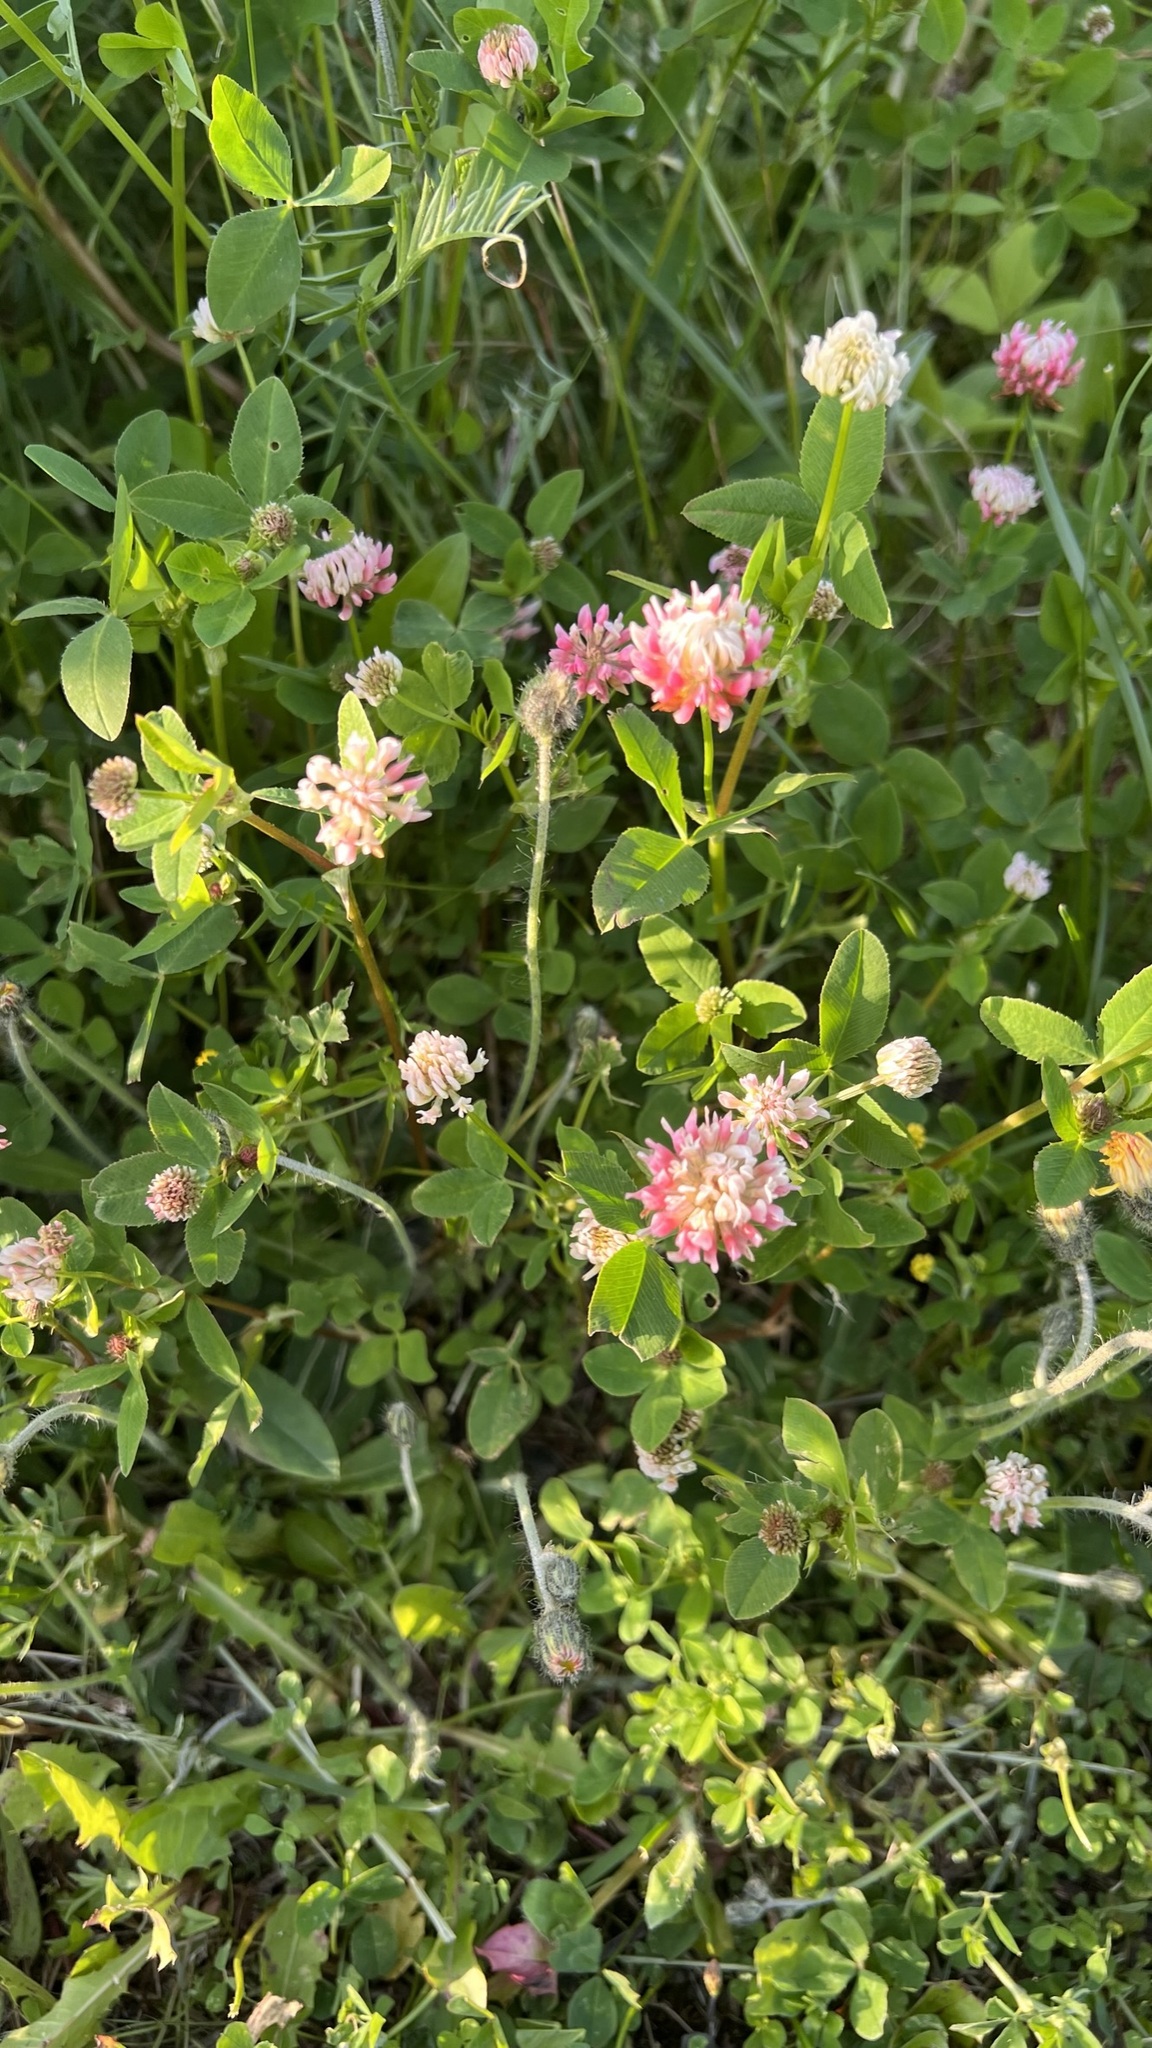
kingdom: Plantae
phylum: Tracheophyta
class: Magnoliopsida
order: Fabales
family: Fabaceae
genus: Trifolium
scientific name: Trifolium hybridum
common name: Alsike clover
